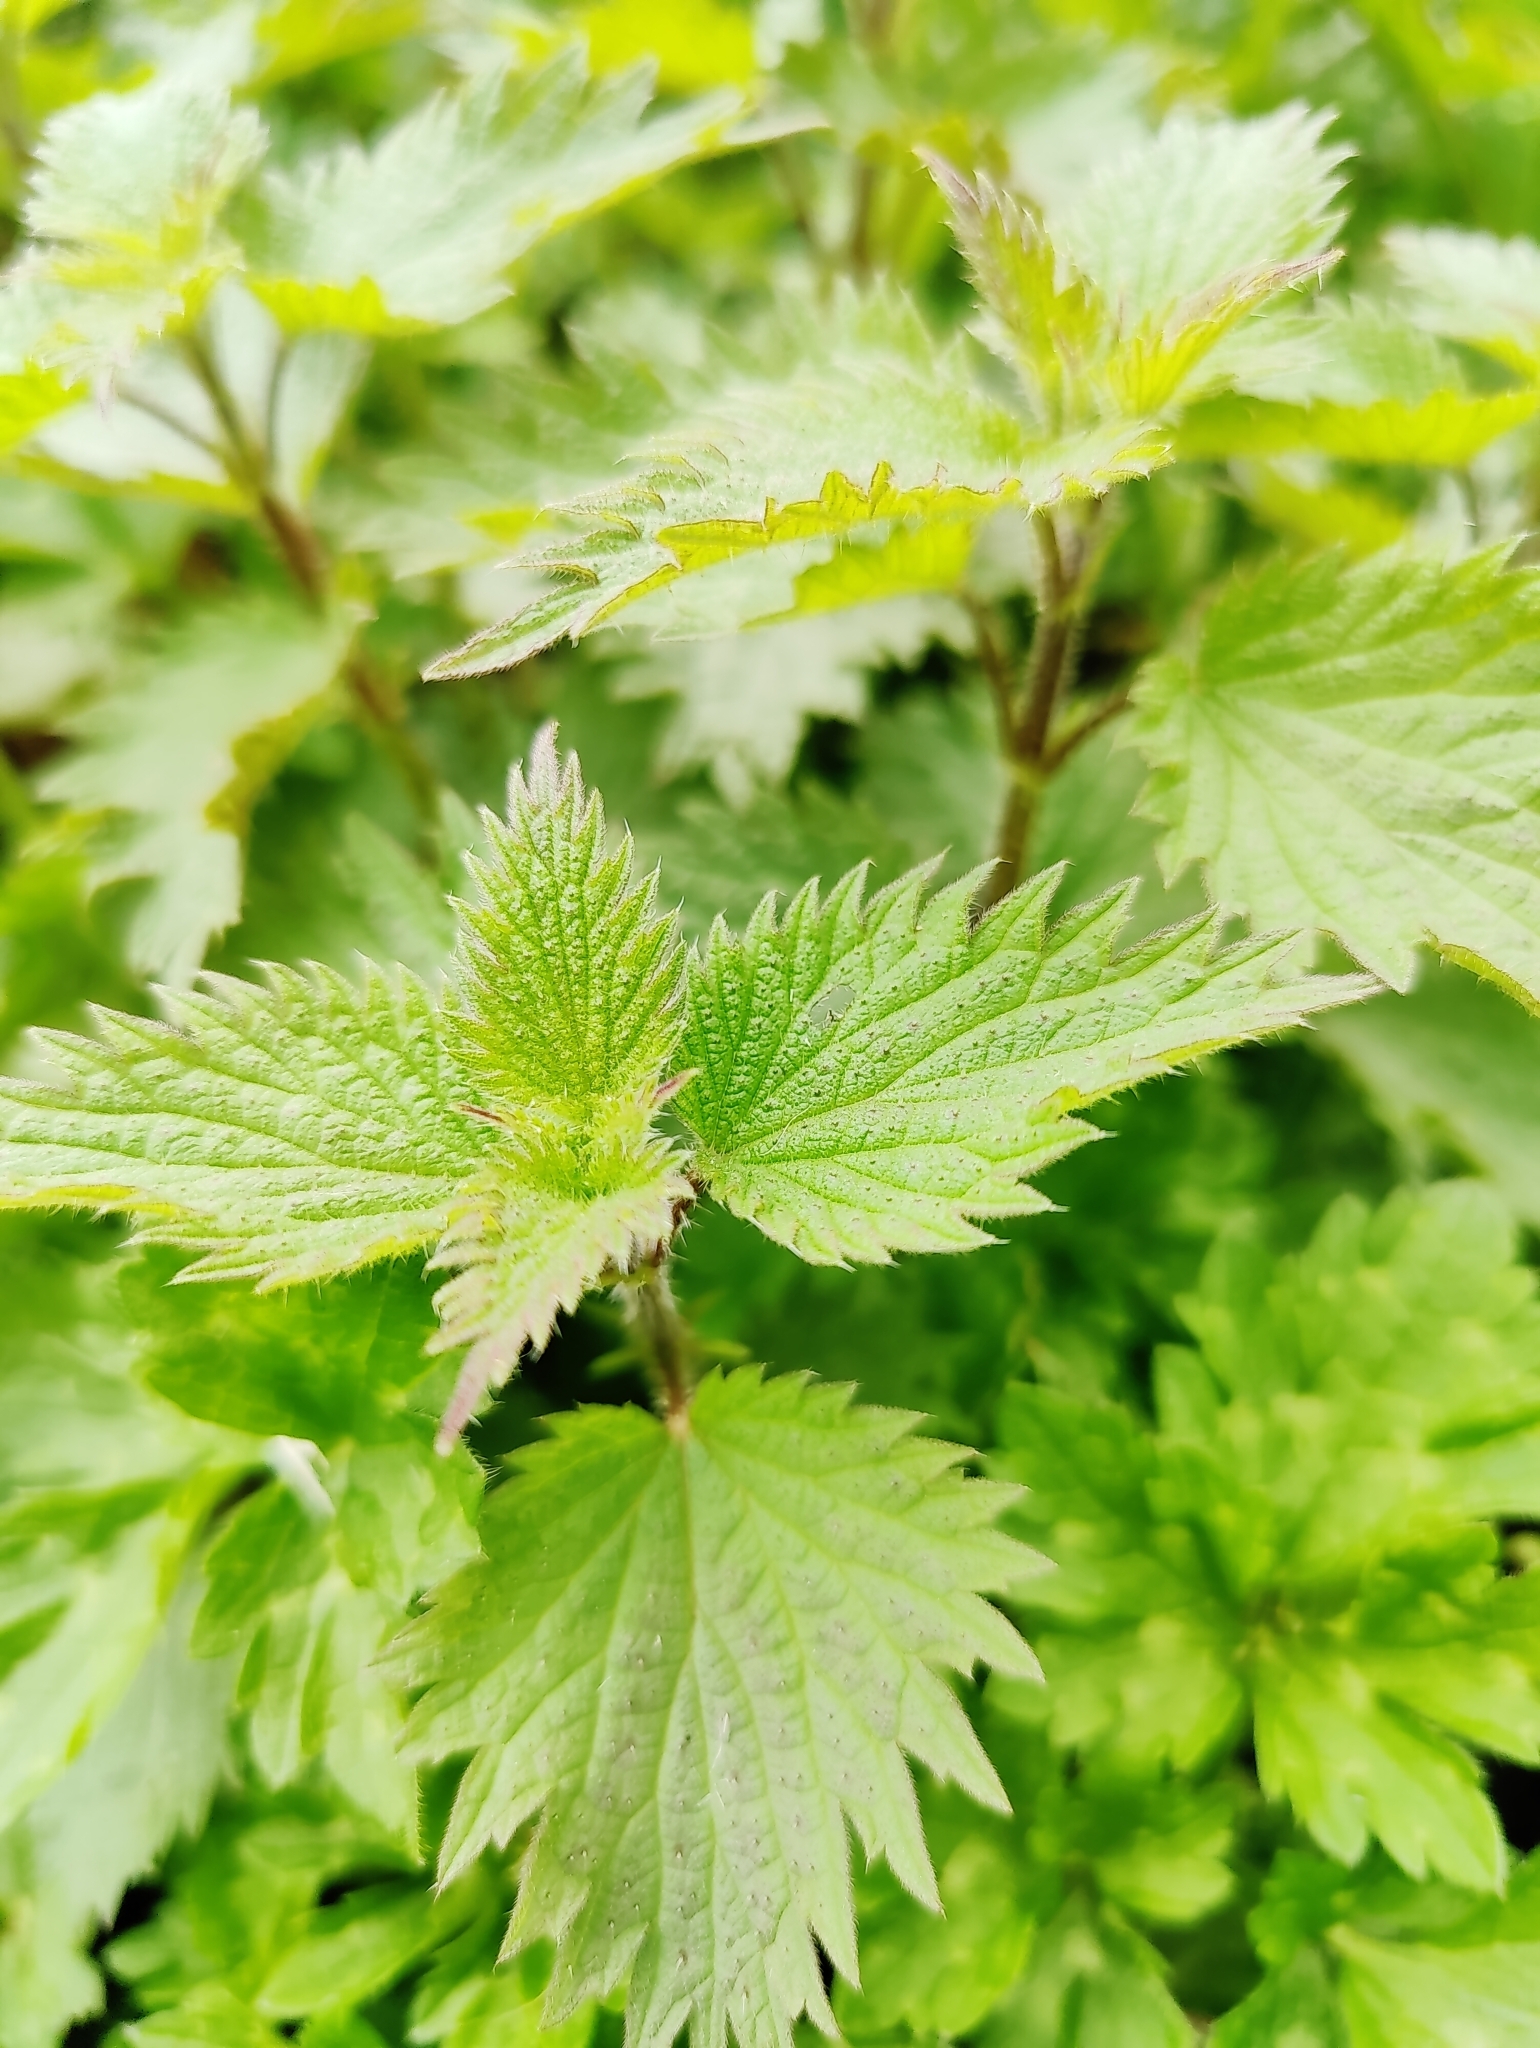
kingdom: Plantae
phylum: Tracheophyta
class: Magnoliopsida
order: Rosales
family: Urticaceae
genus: Urtica
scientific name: Urtica dioica
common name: Common nettle
